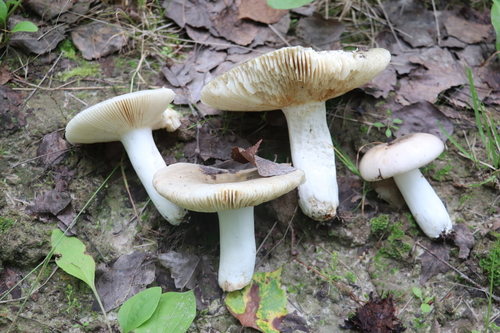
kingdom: Fungi
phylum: Basidiomycota
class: Agaricomycetes
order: Russulales
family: Russulaceae
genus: Russula
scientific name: Russula vesca
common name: Bare-toothed russula
